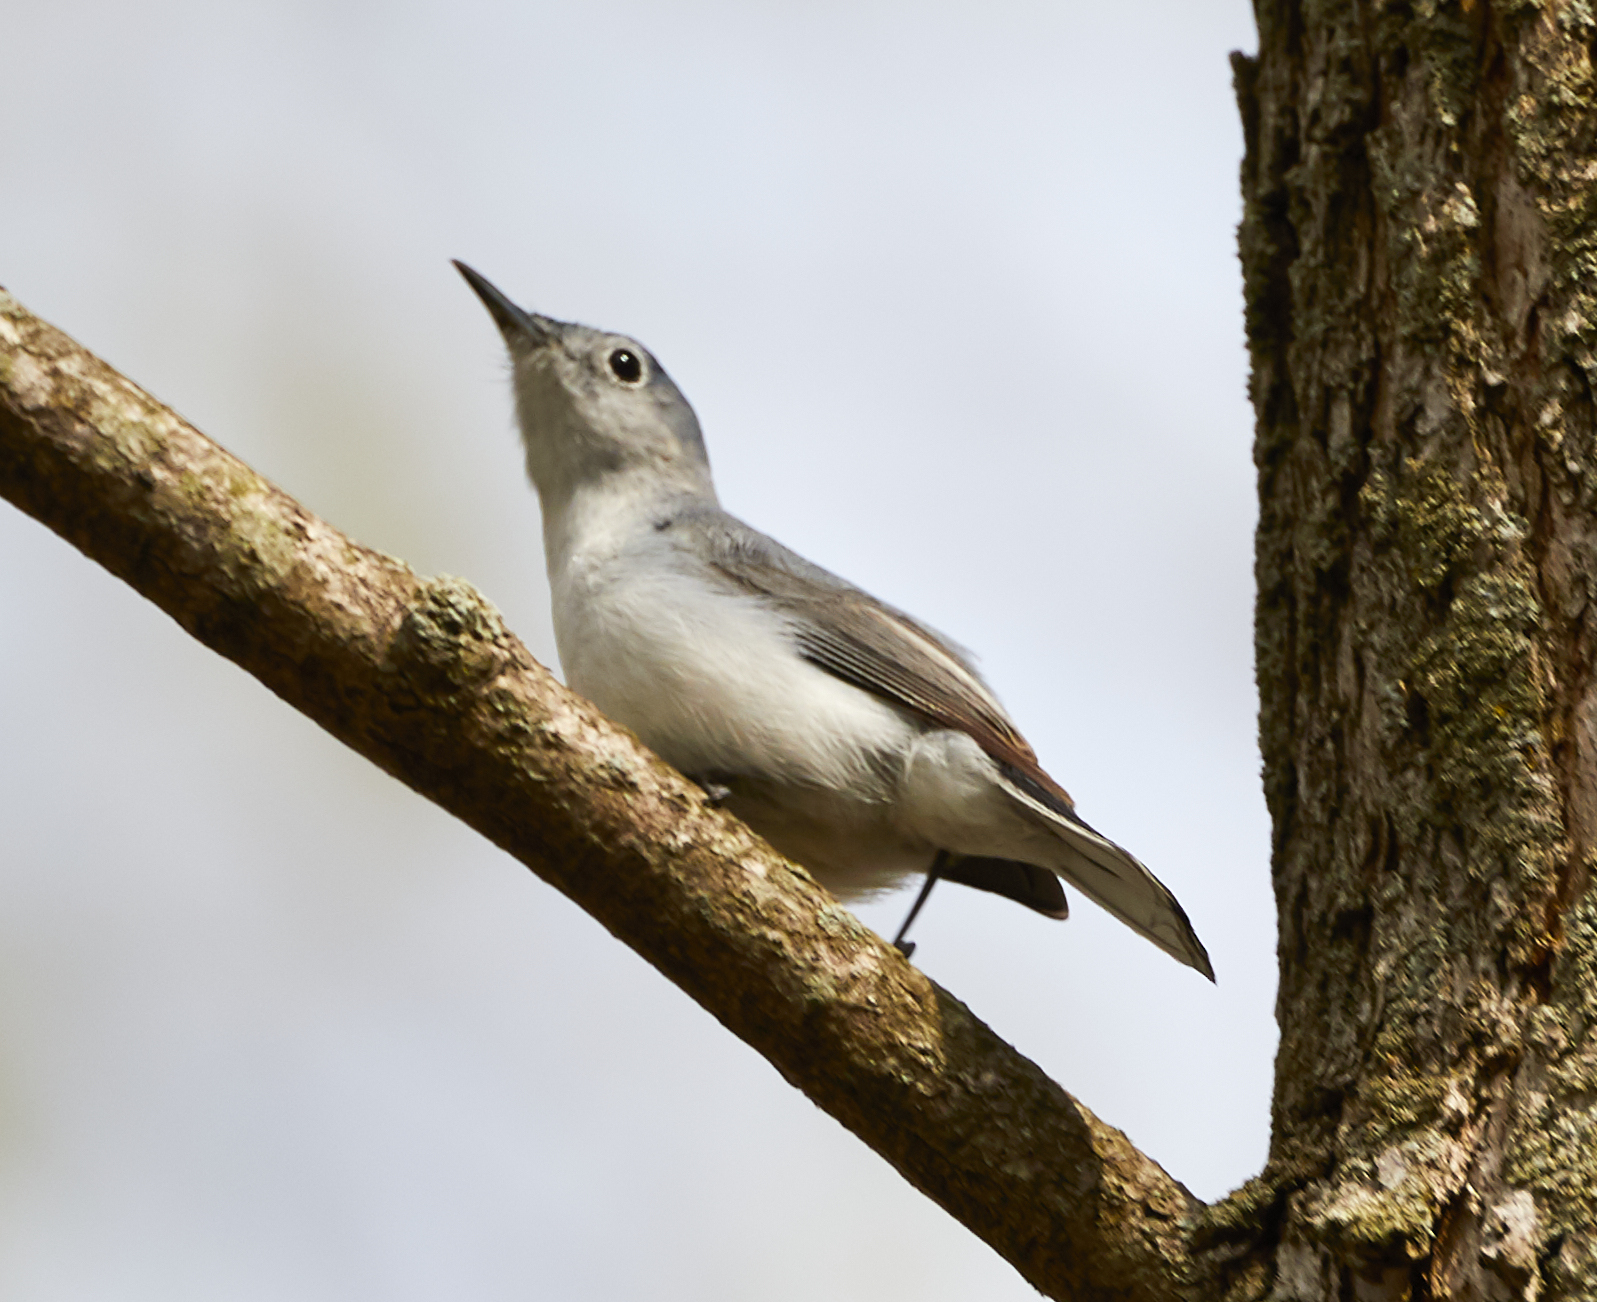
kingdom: Animalia
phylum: Chordata
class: Aves
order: Passeriformes
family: Polioptilidae
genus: Polioptila
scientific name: Polioptila caerulea
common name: Blue-gray gnatcatcher
